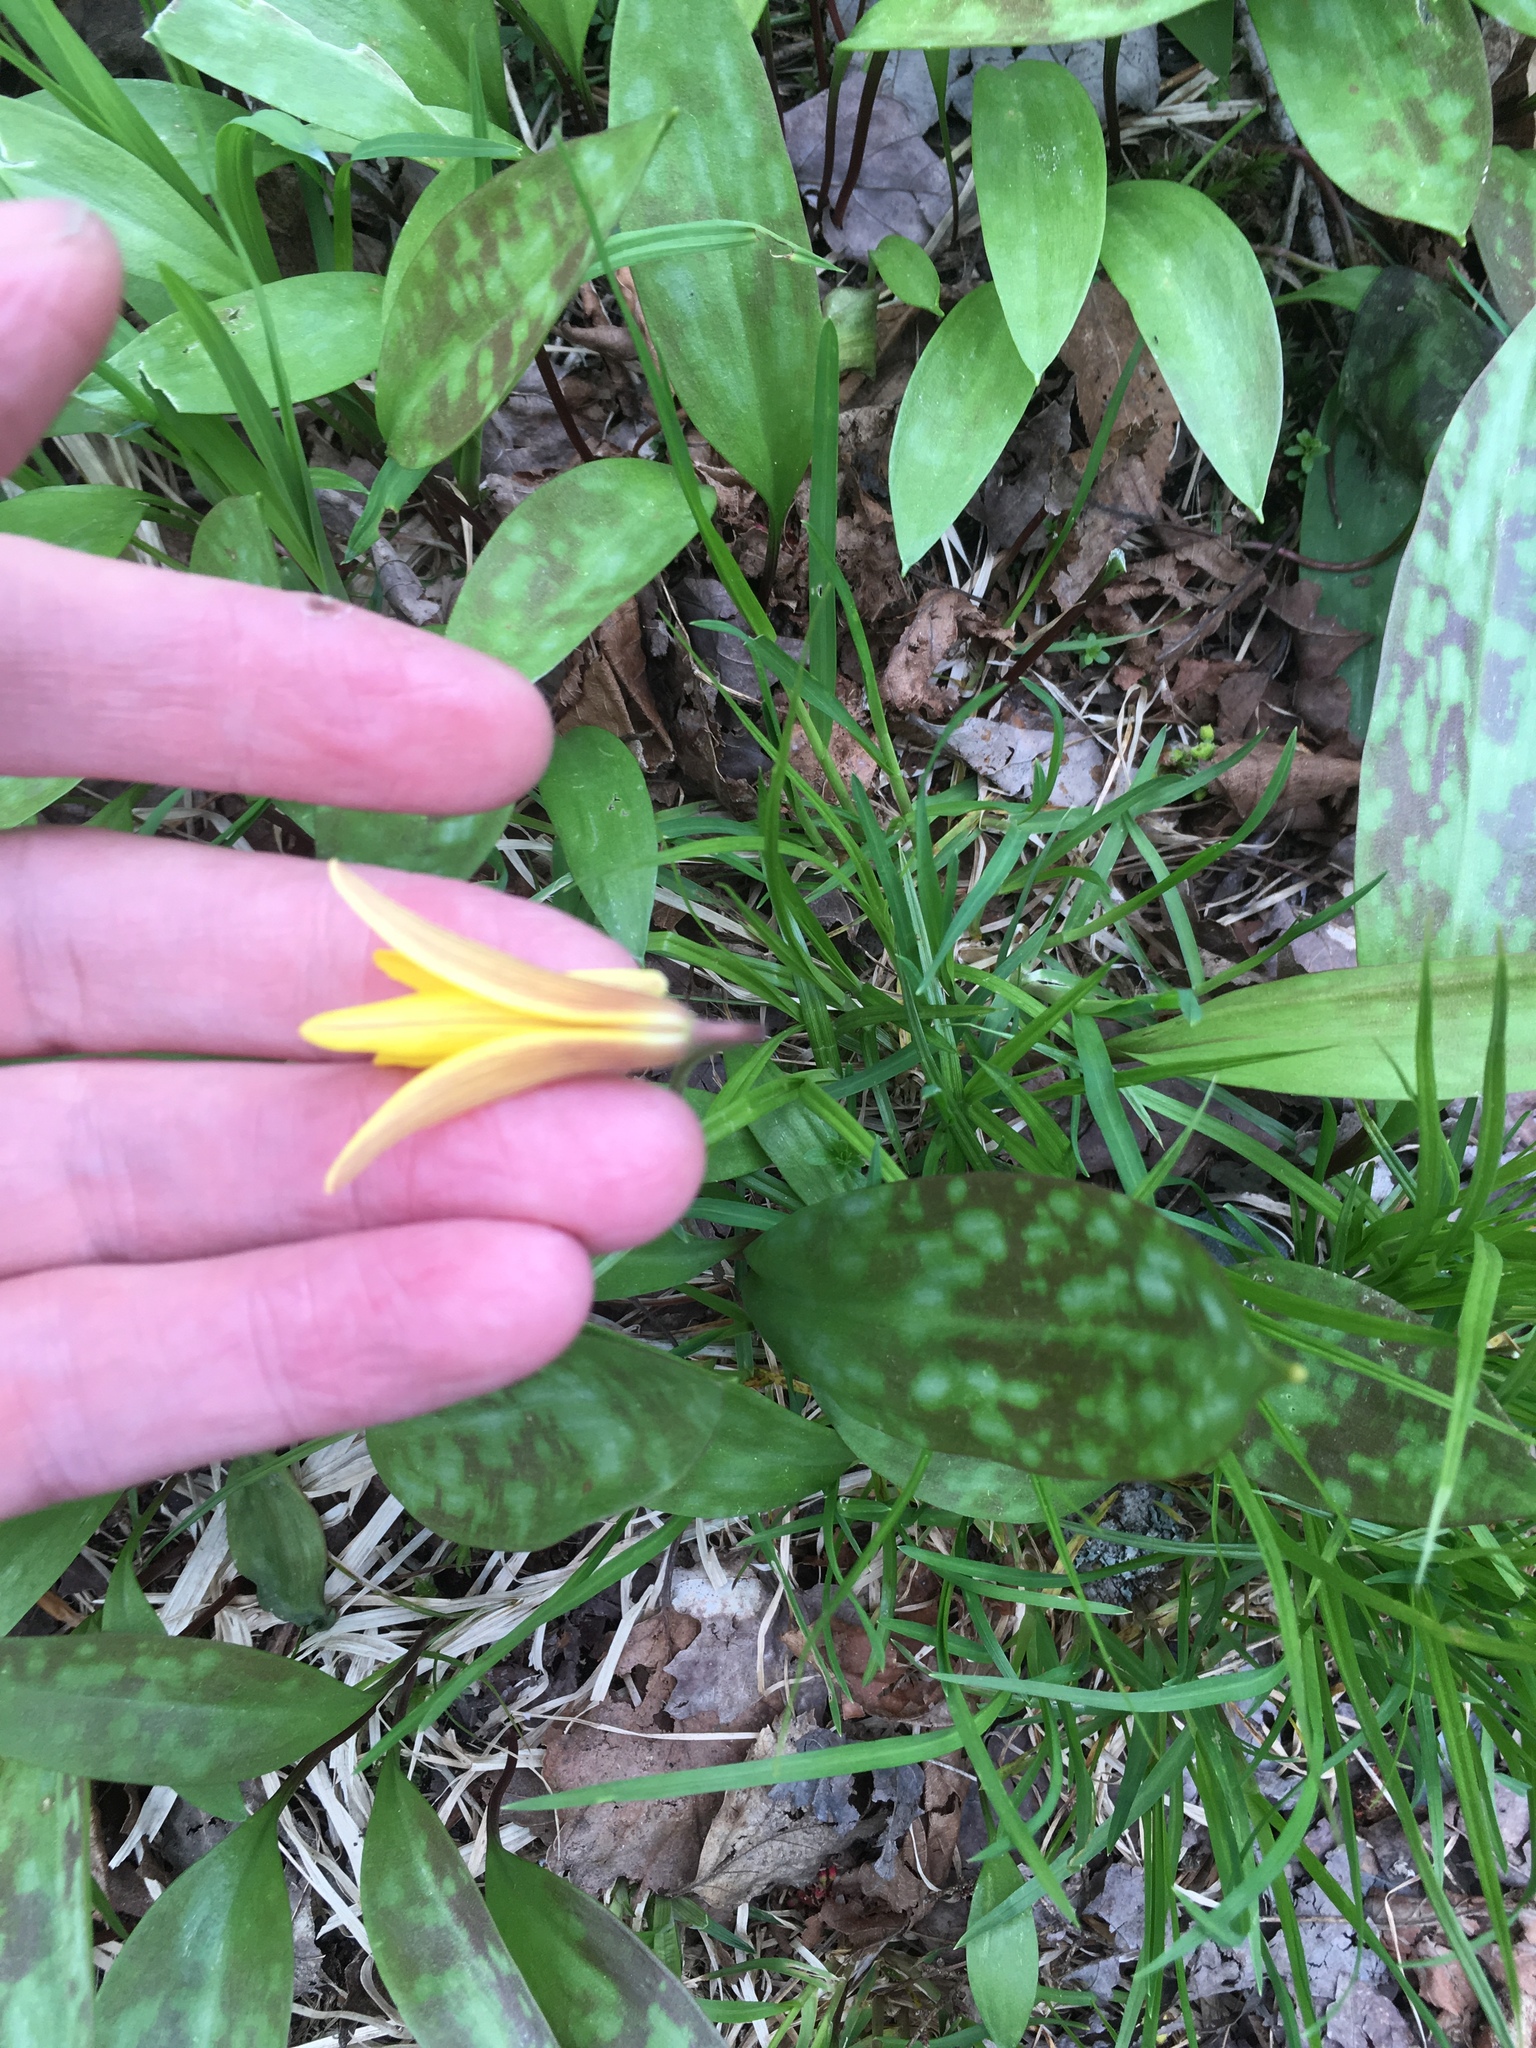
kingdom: Plantae
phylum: Tracheophyta
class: Liliopsida
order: Liliales
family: Liliaceae
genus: Erythronium
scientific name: Erythronium americanum
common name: Yellow adder's-tongue
